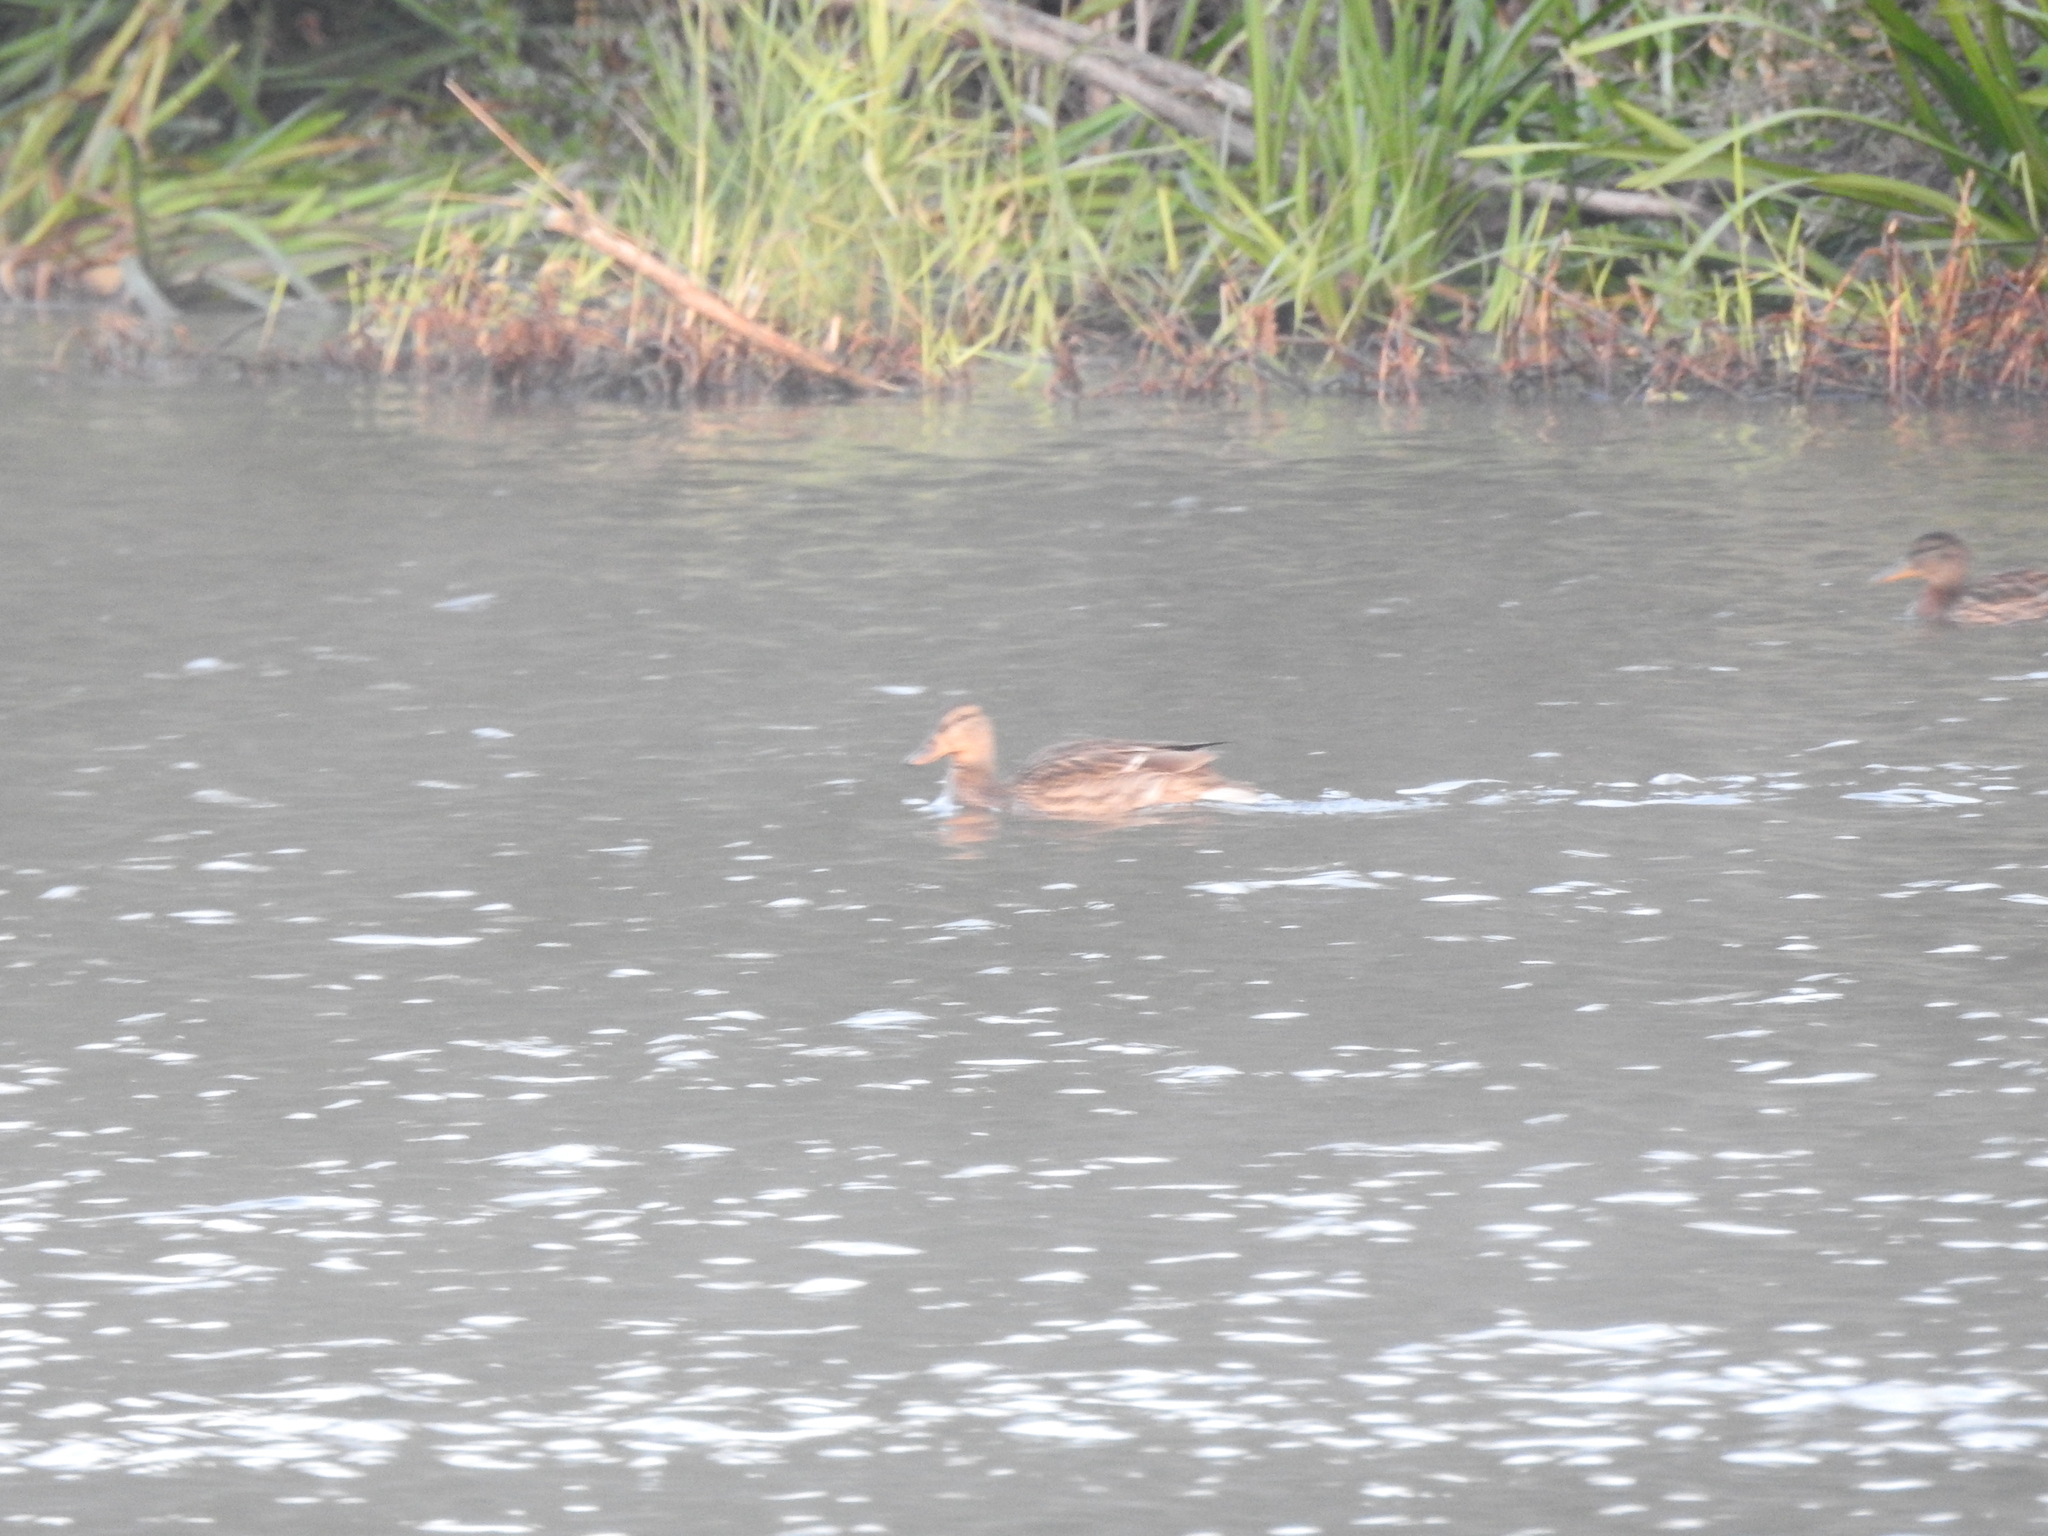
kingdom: Animalia
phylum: Chordata
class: Aves
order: Anseriformes
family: Anatidae
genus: Anas
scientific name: Anas platyrhynchos
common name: Mallard
